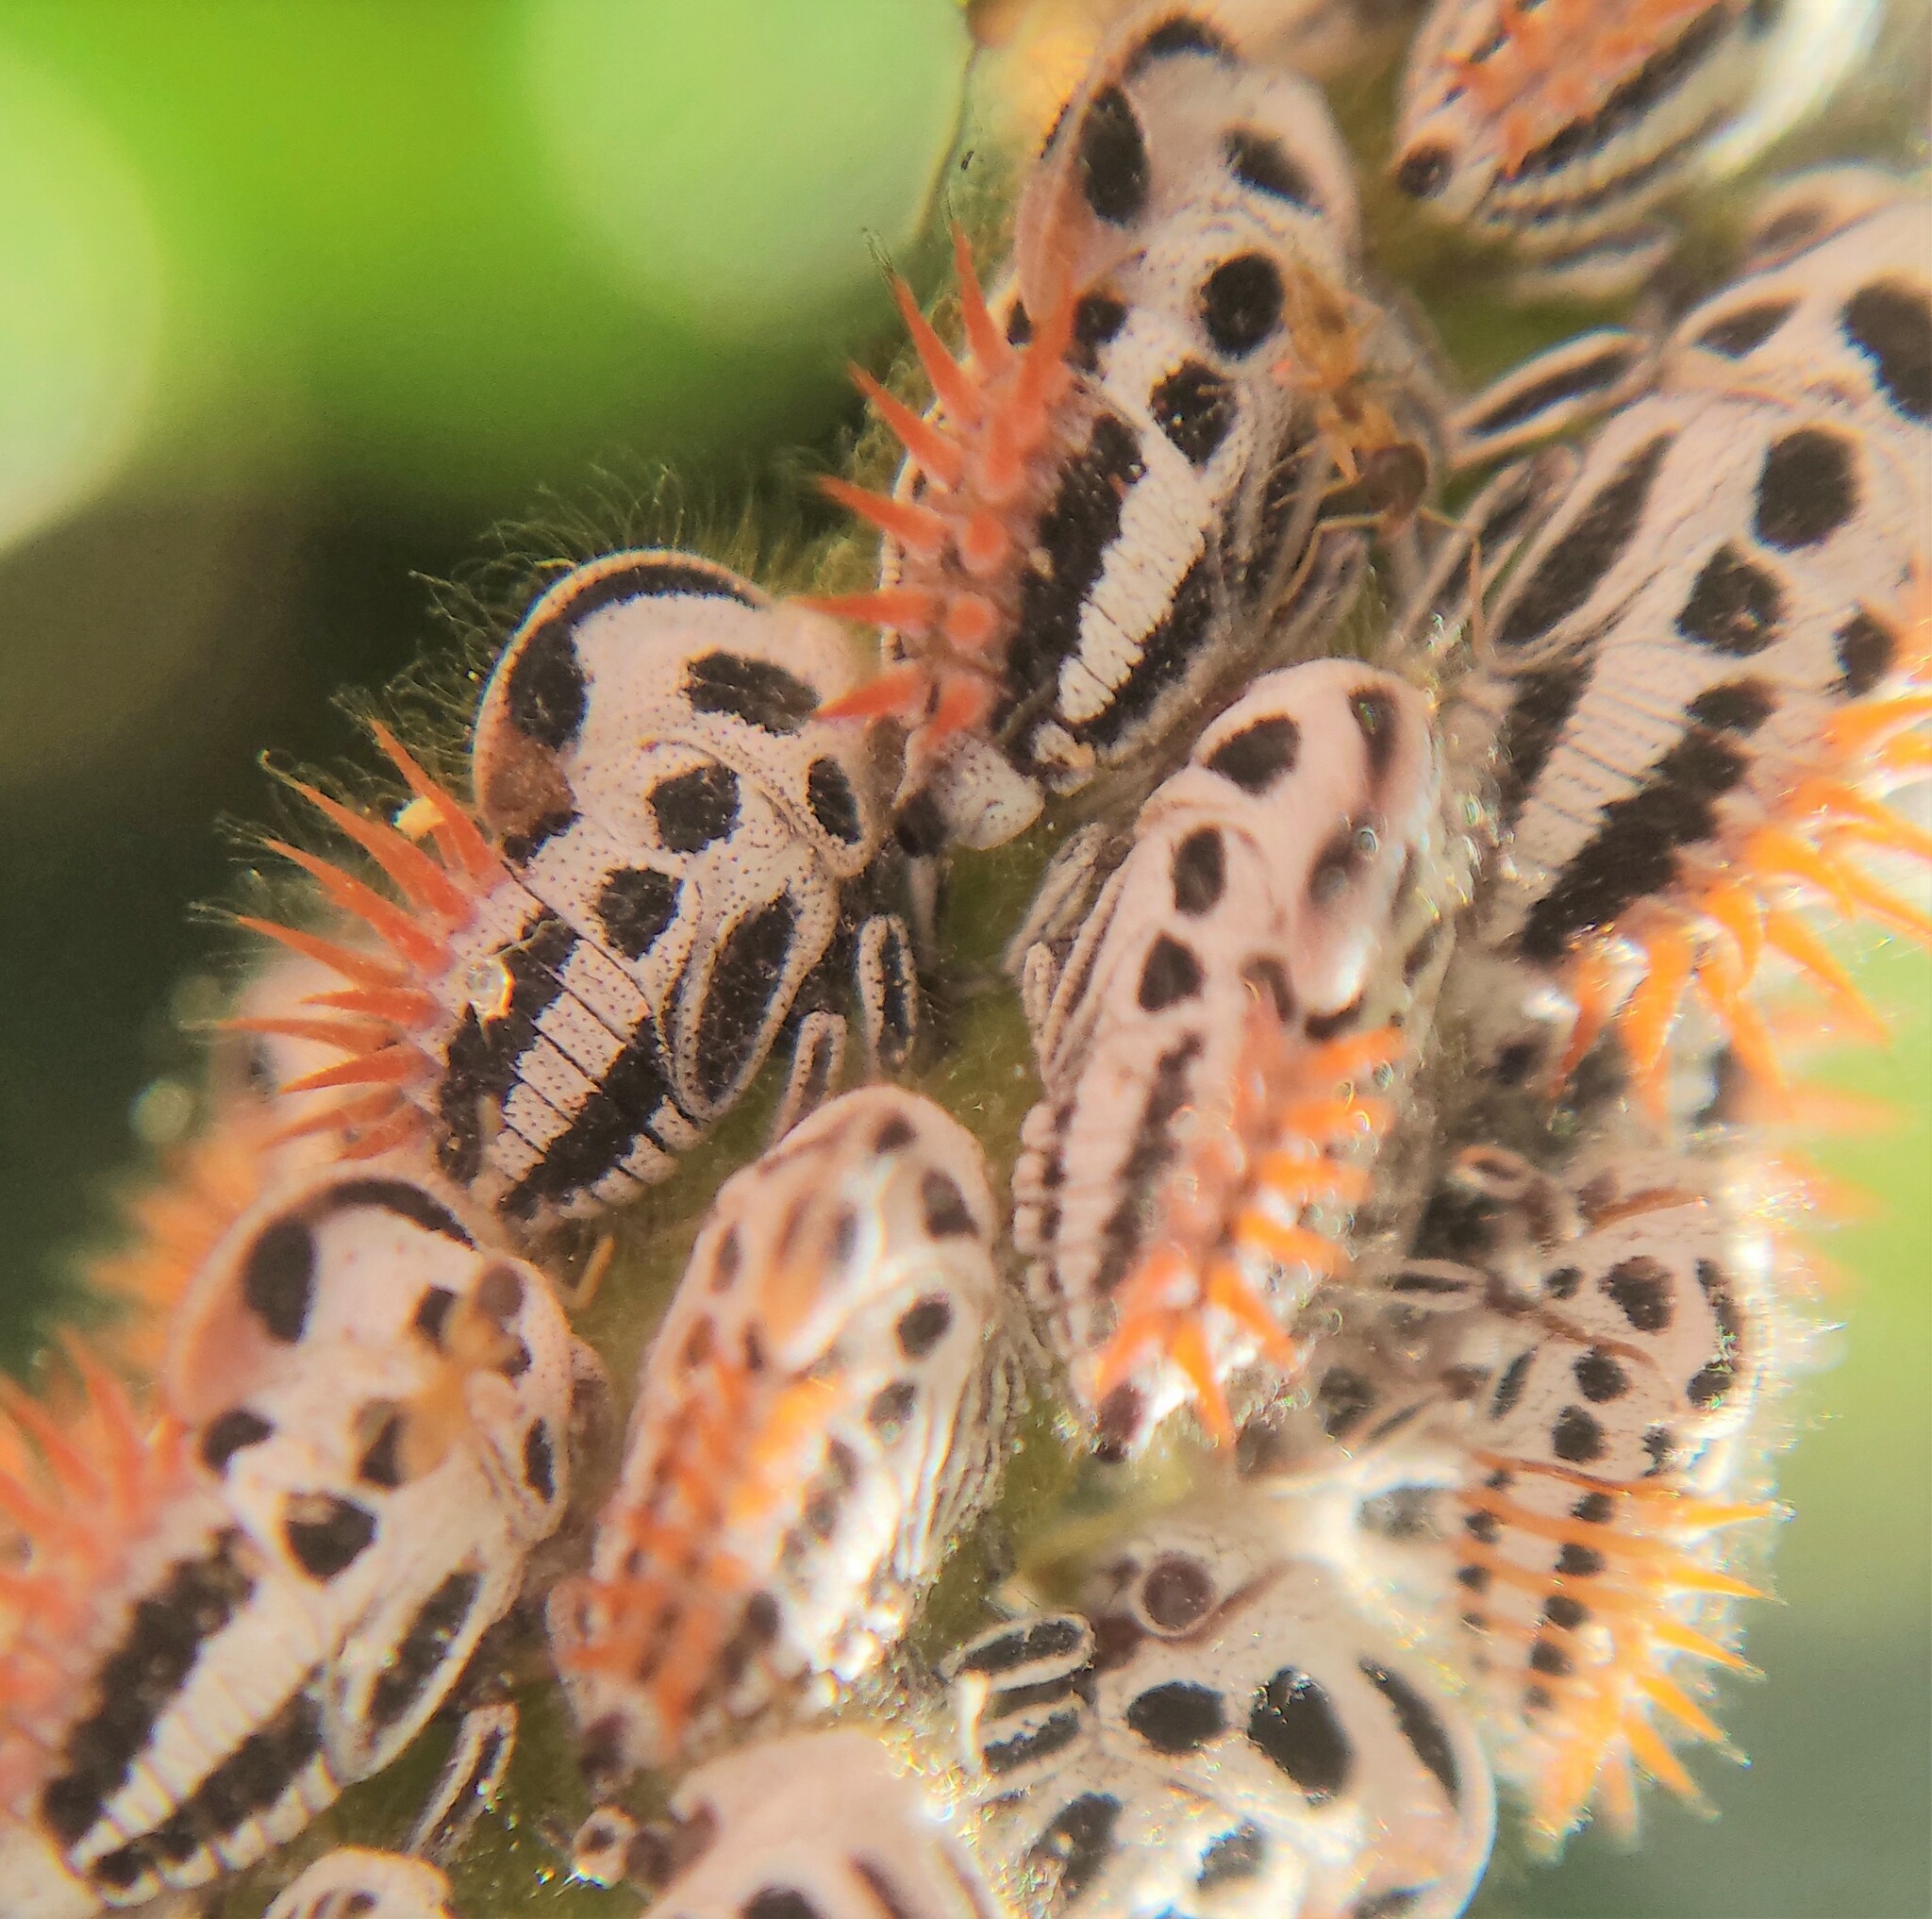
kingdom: Animalia
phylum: Arthropoda
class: Insecta
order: Hemiptera
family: Membracidae
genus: Membracis
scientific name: Membracis foliatafasciata
